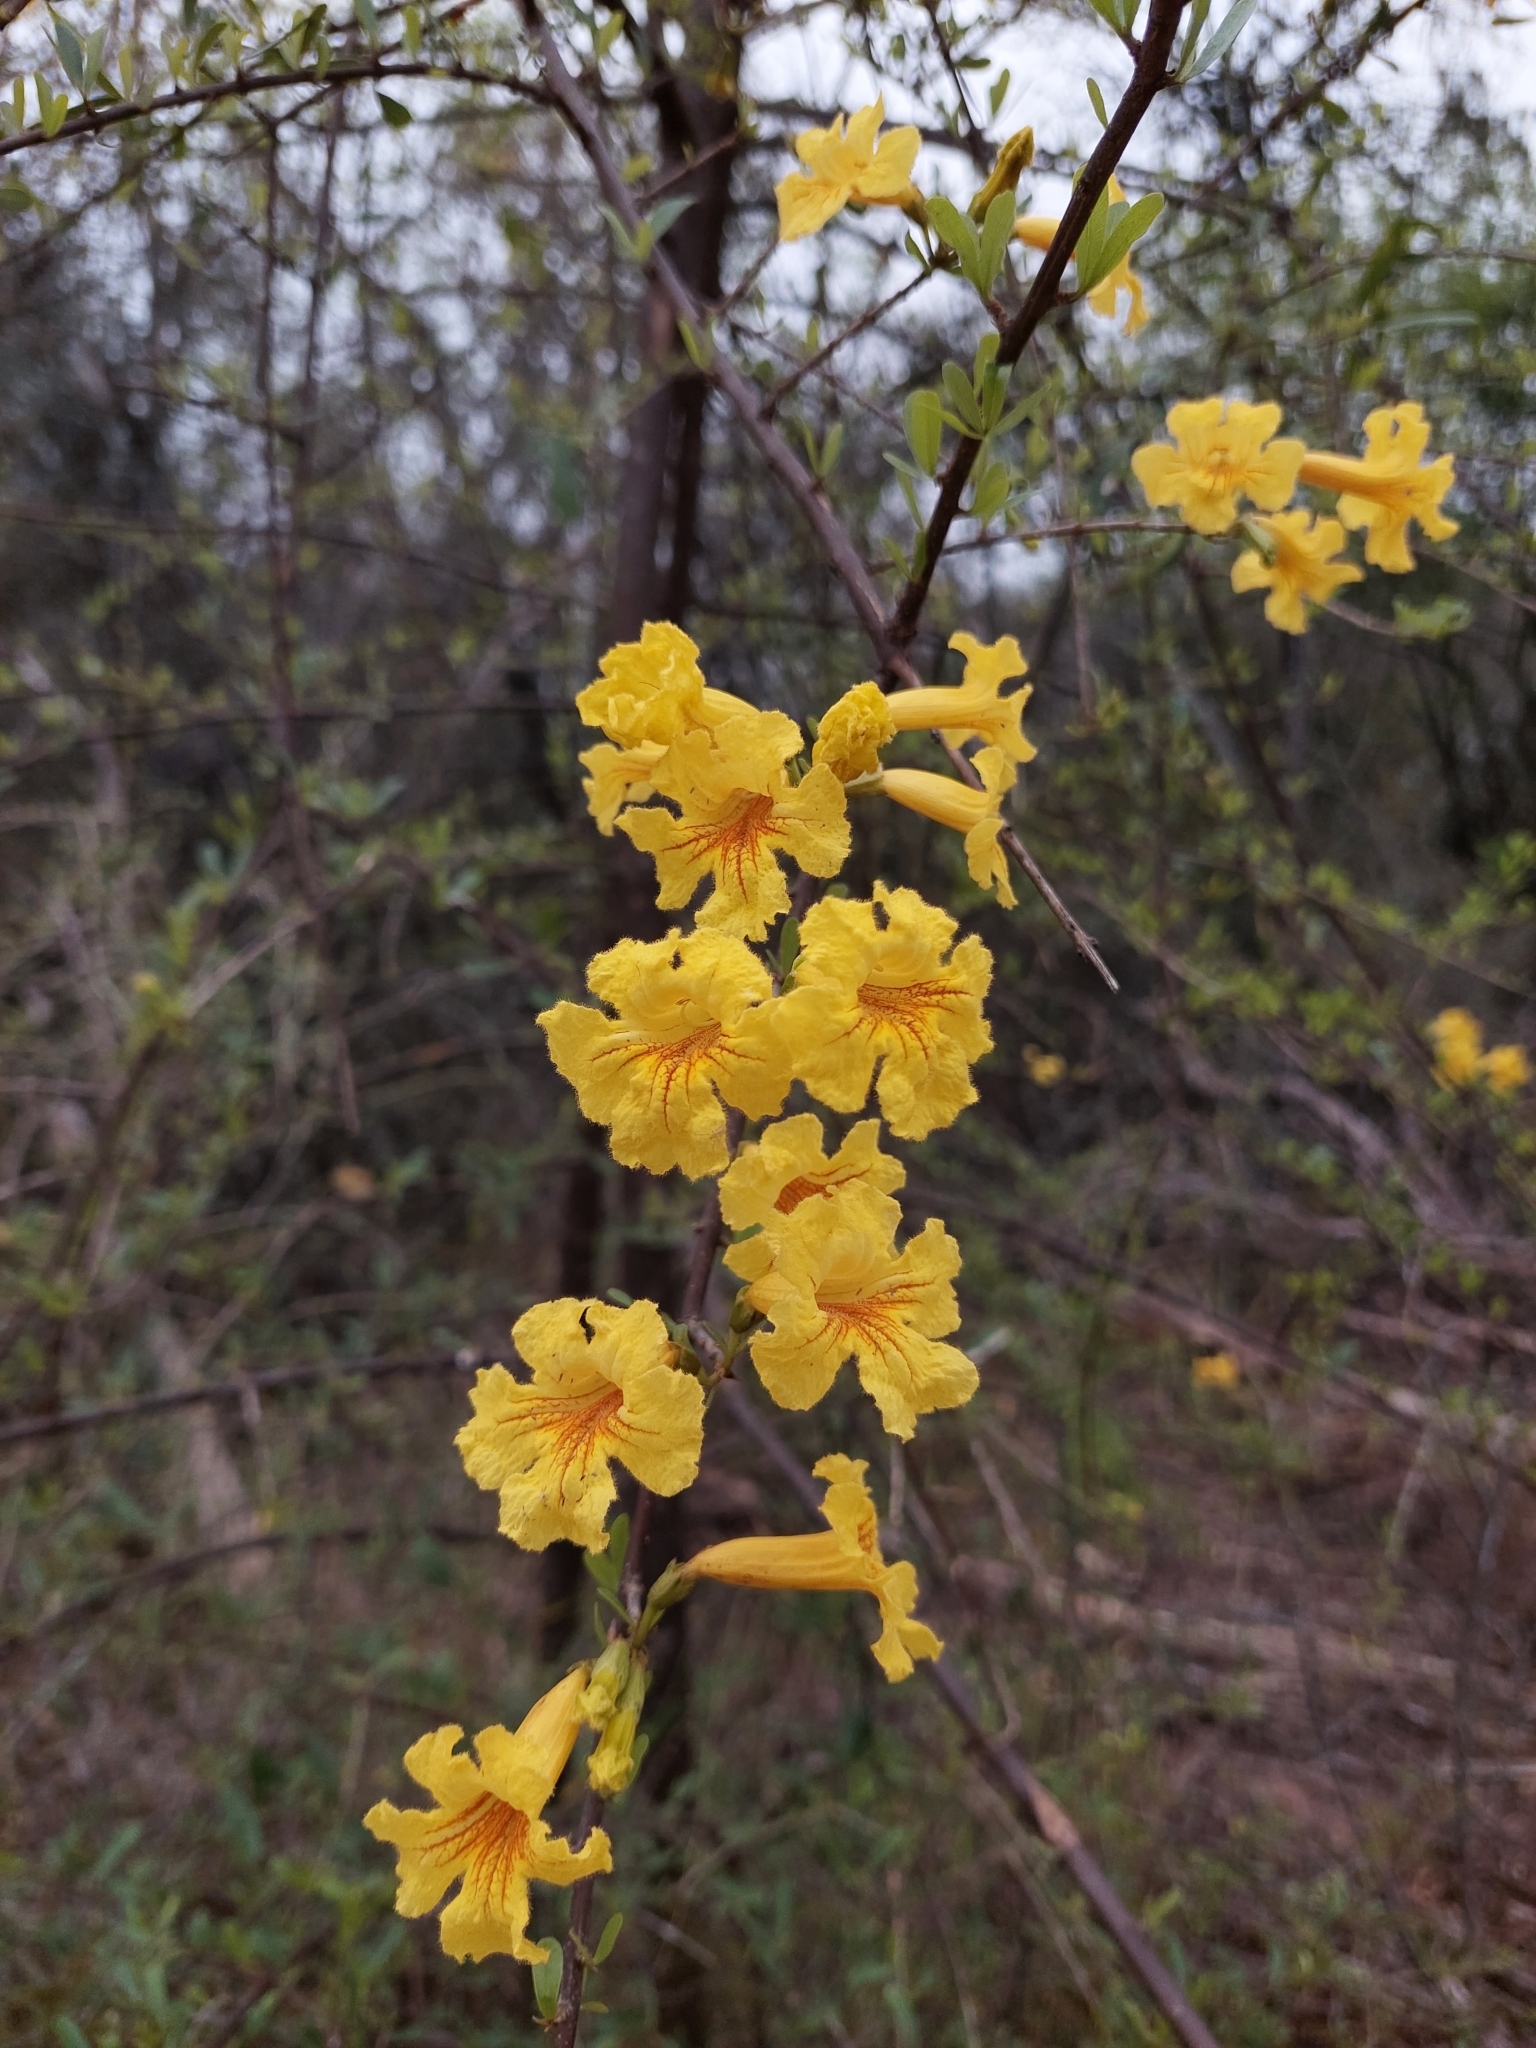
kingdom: Plantae
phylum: Tracheophyta
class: Magnoliopsida
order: Lamiales
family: Bignoniaceae
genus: Tabebuia
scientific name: Tabebuia nodosa
